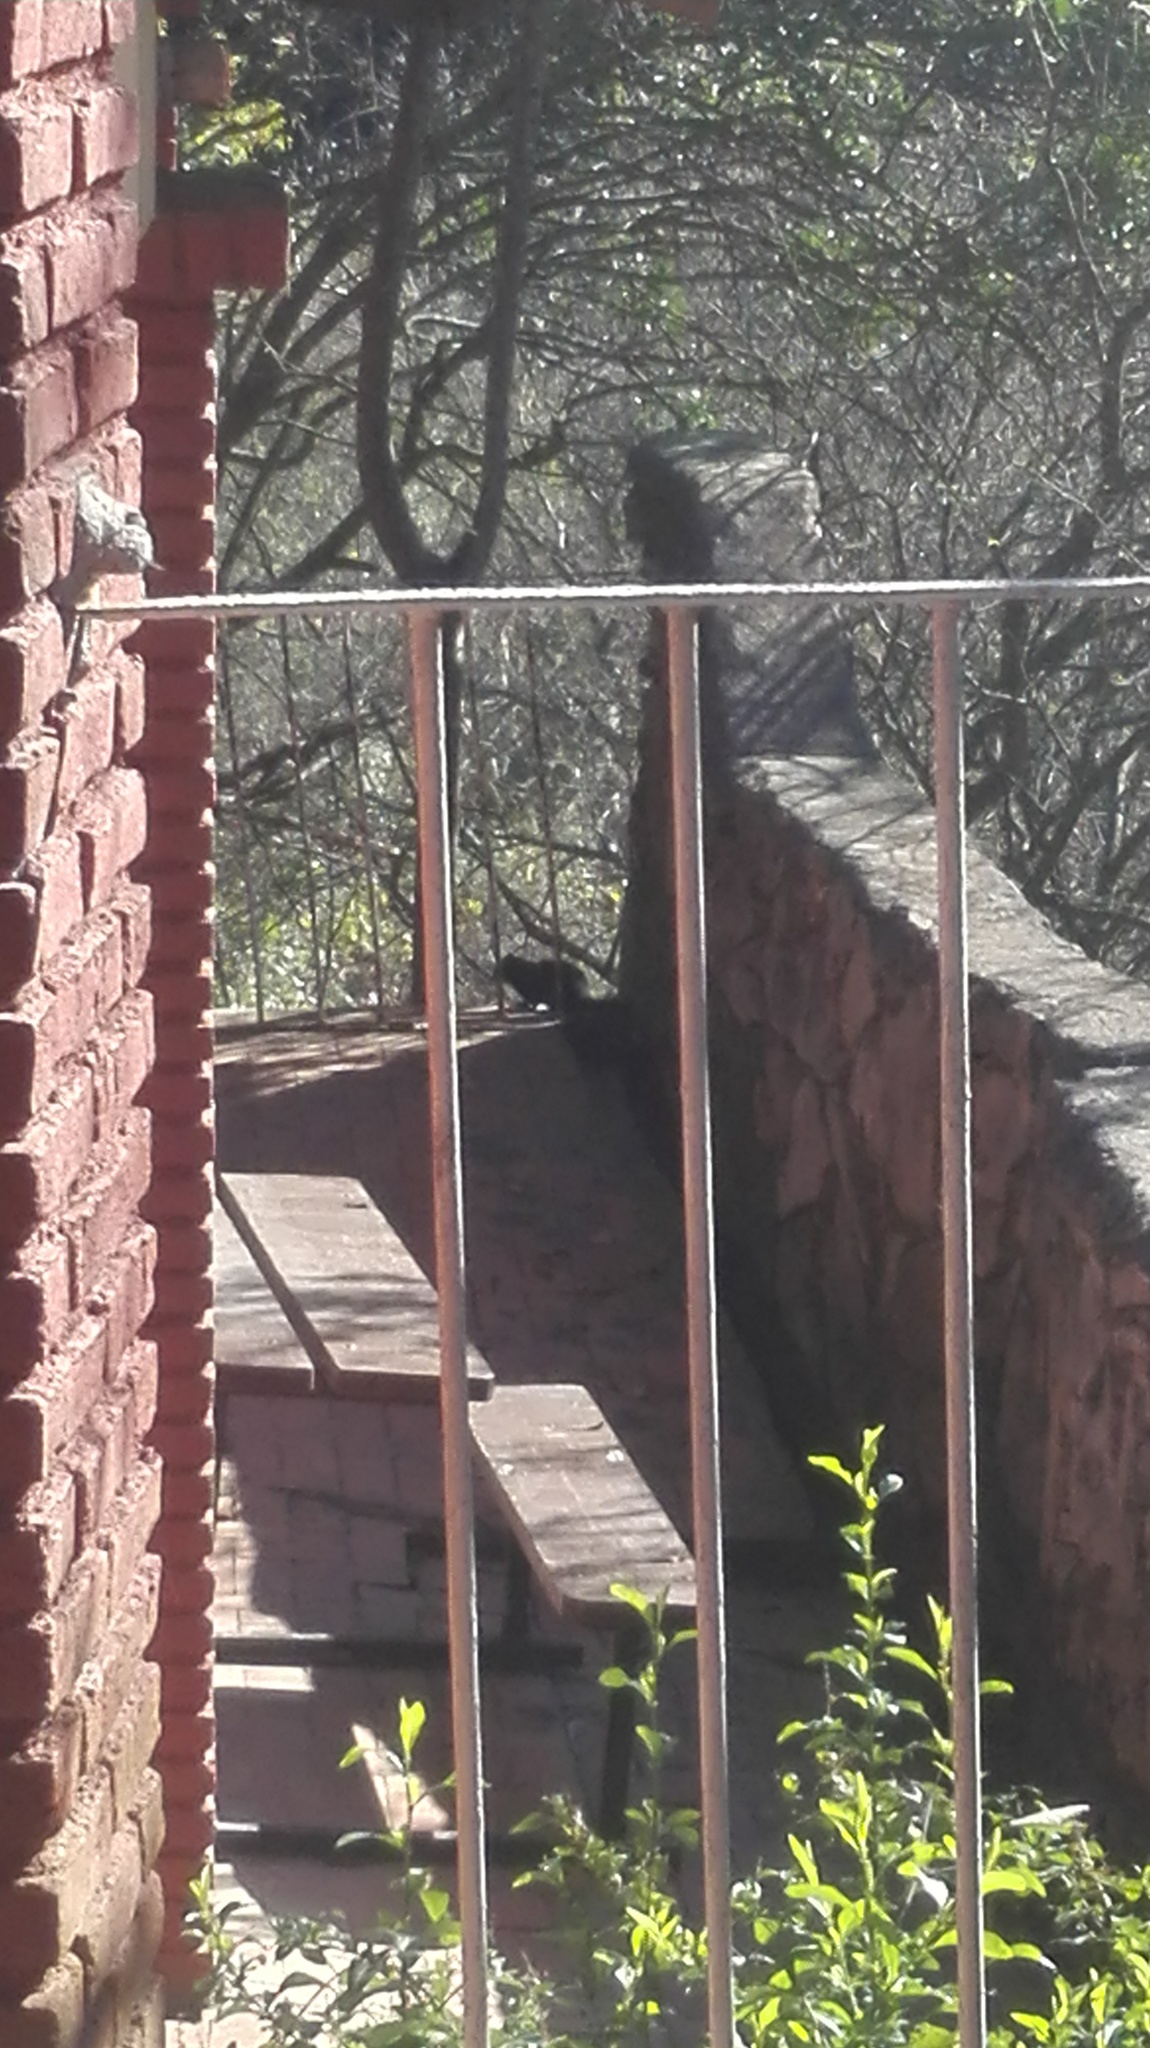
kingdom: Animalia
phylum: Chordata
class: Mammalia
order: Rodentia
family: Sciuridae
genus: Otospermophilus
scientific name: Otospermophilus variegatus
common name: Rock squirrel
